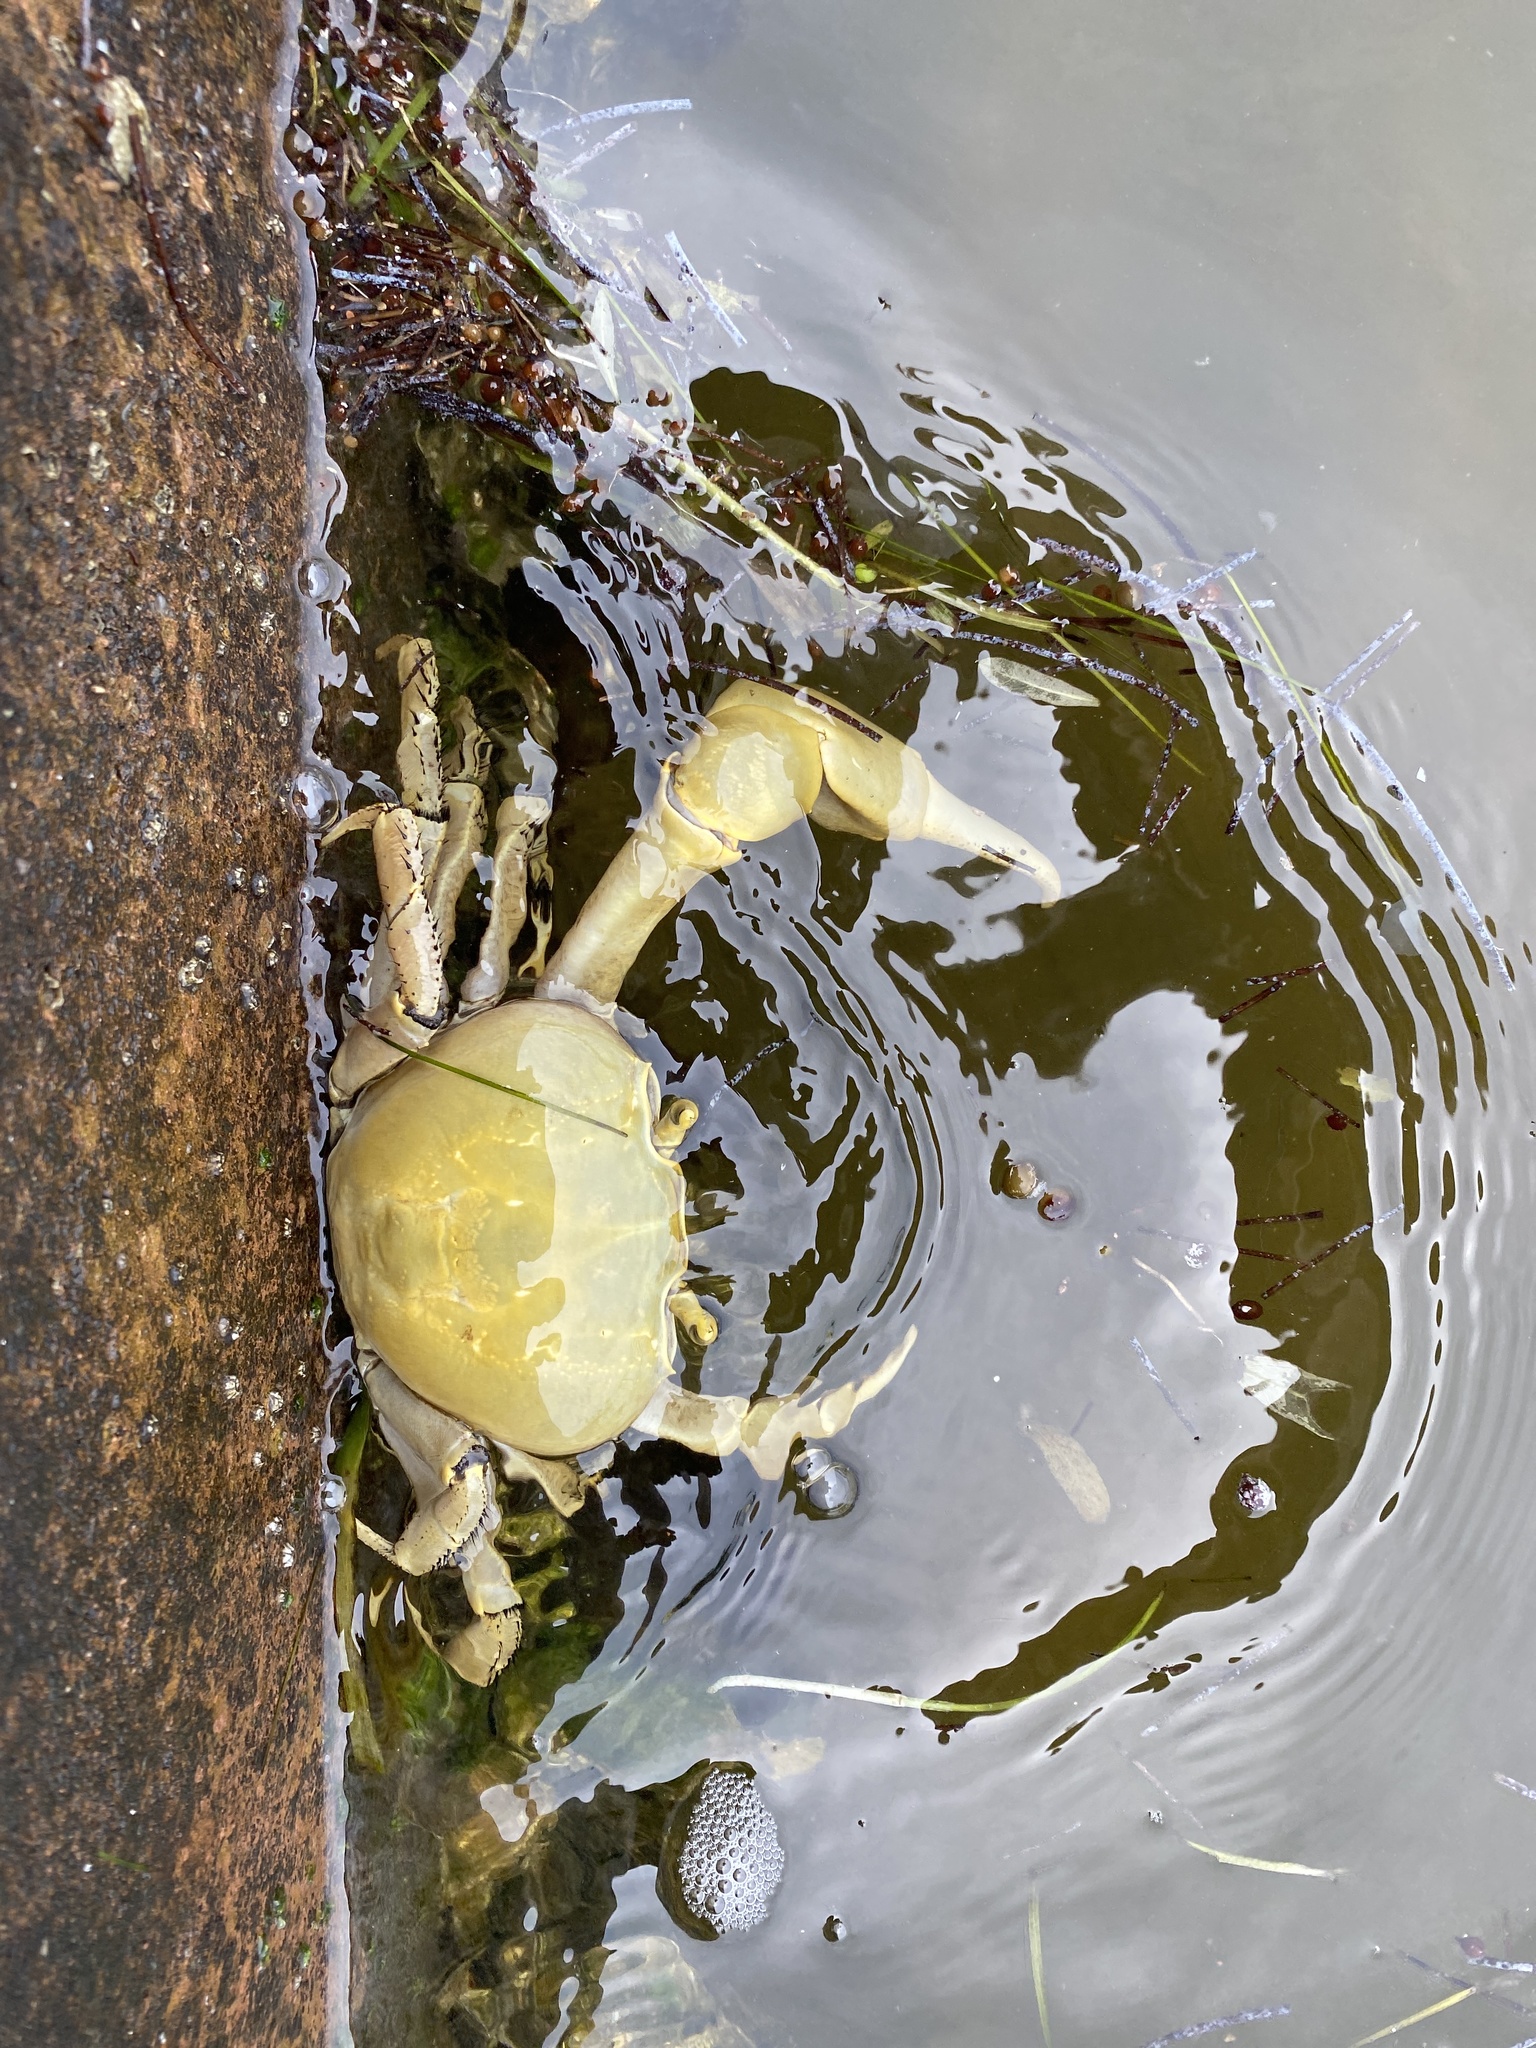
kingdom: Animalia
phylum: Arthropoda
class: Malacostraca
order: Decapoda
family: Gecarcinidae
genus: Cardisoma
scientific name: Cardisoma guanhumi
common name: Great land crab
